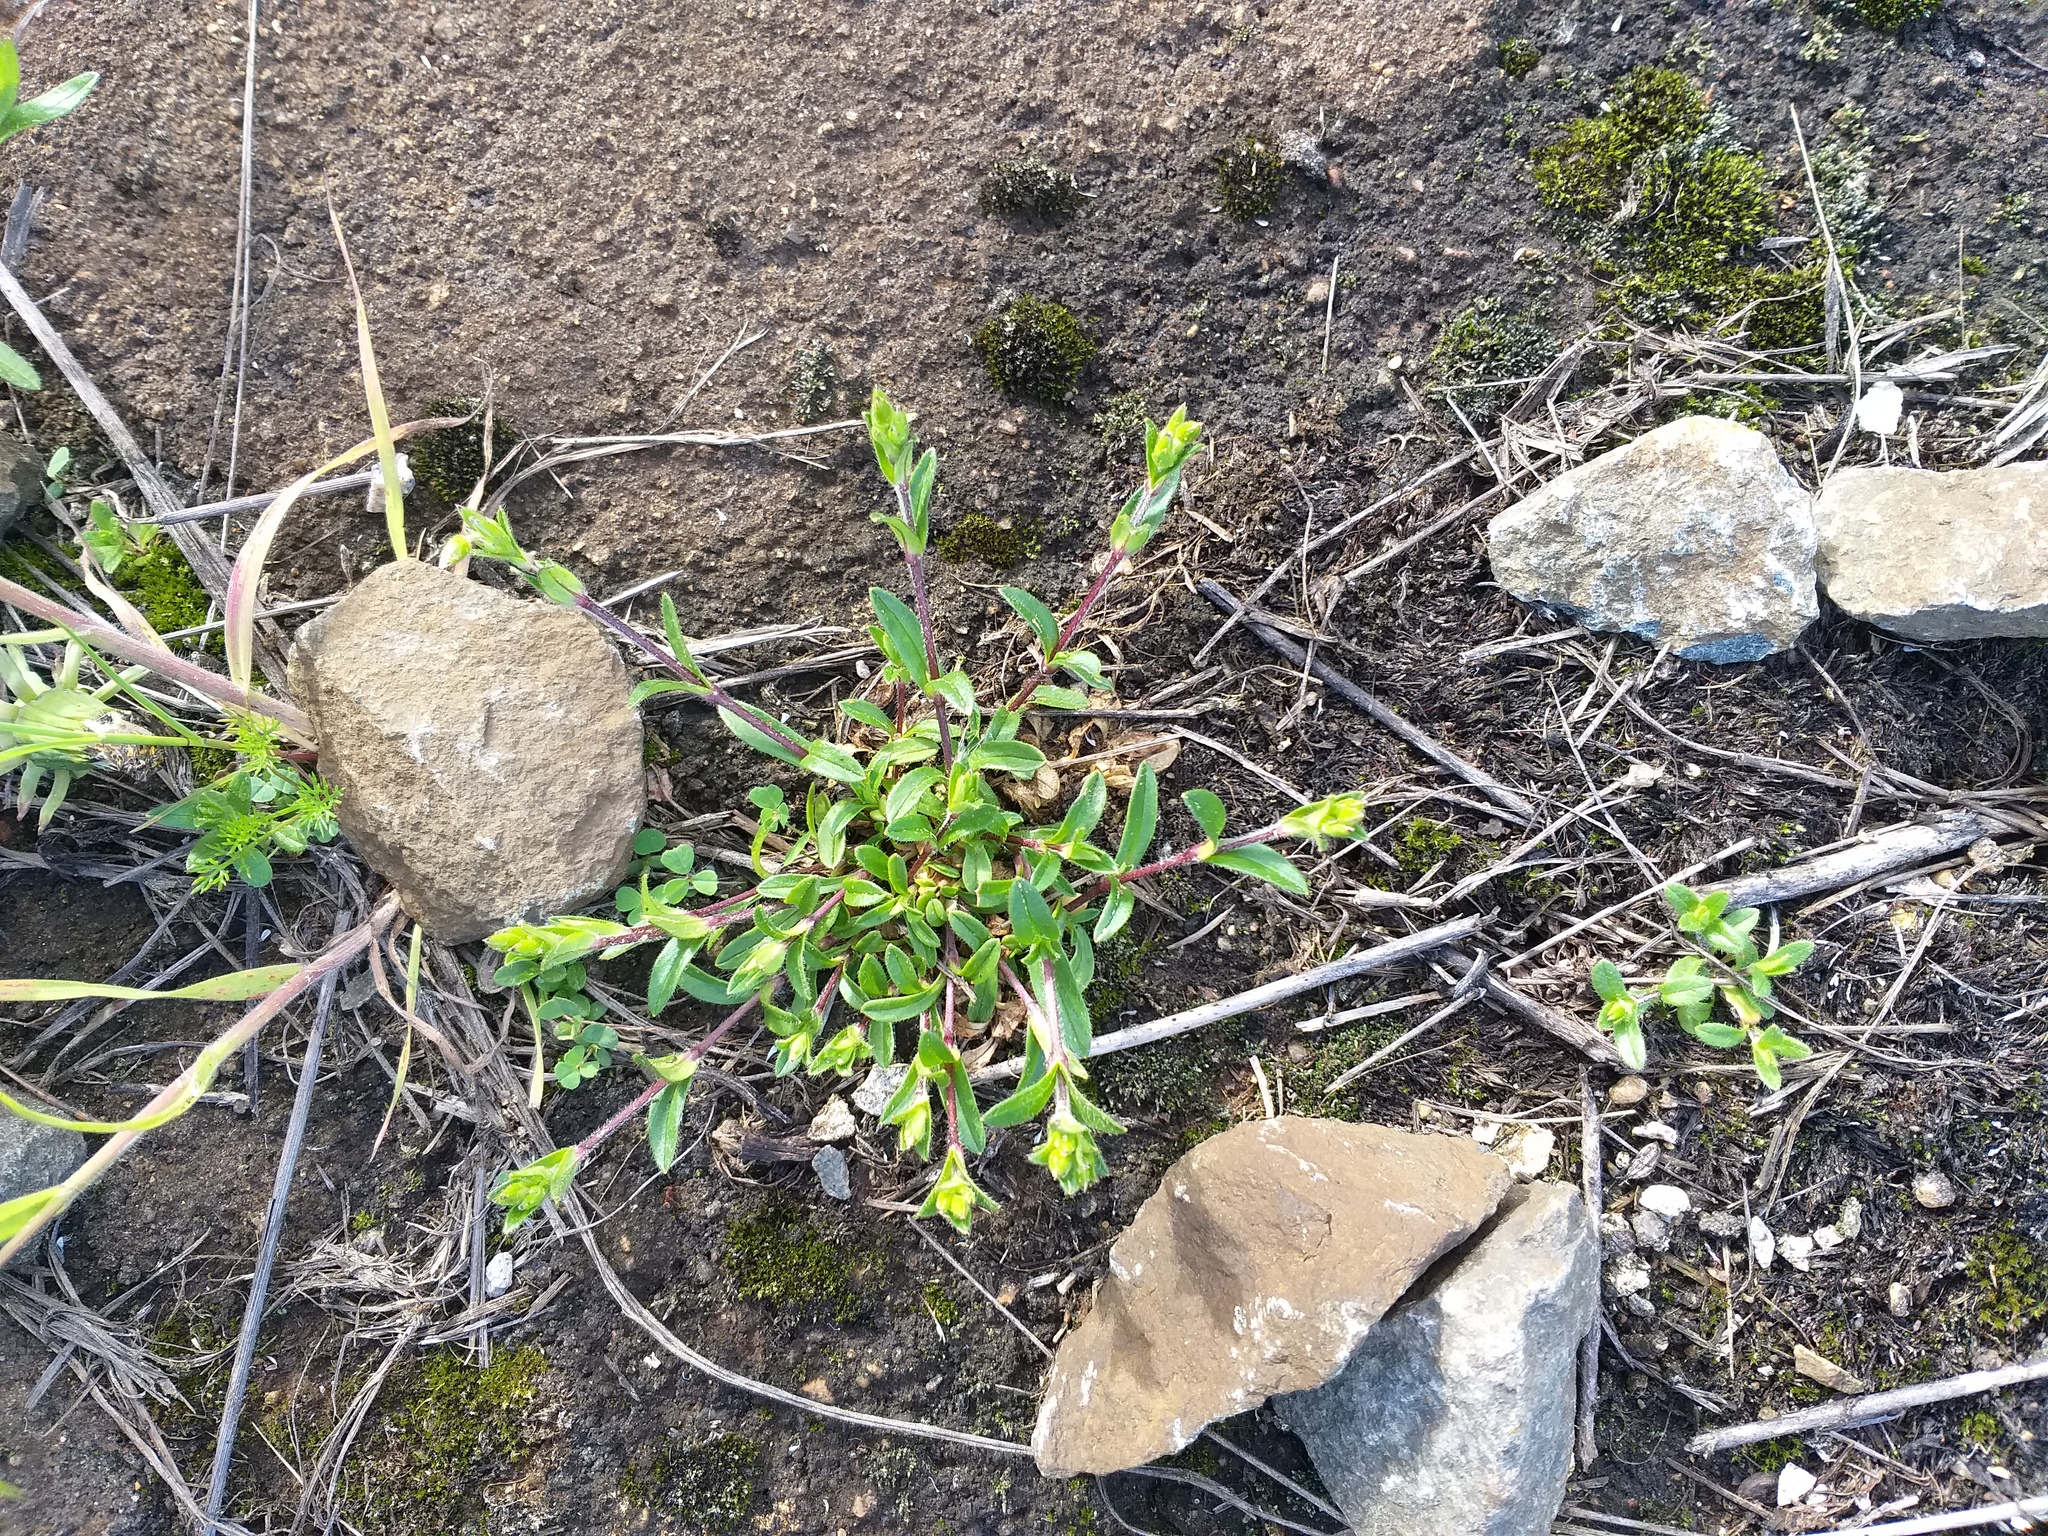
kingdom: Plantae
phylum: Tracheophyta
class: Magnoliopsida
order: Caryophyllales
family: Caryophyllaceae
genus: Cerastium
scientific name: Cerastium holosteoides
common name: Big chickweed
